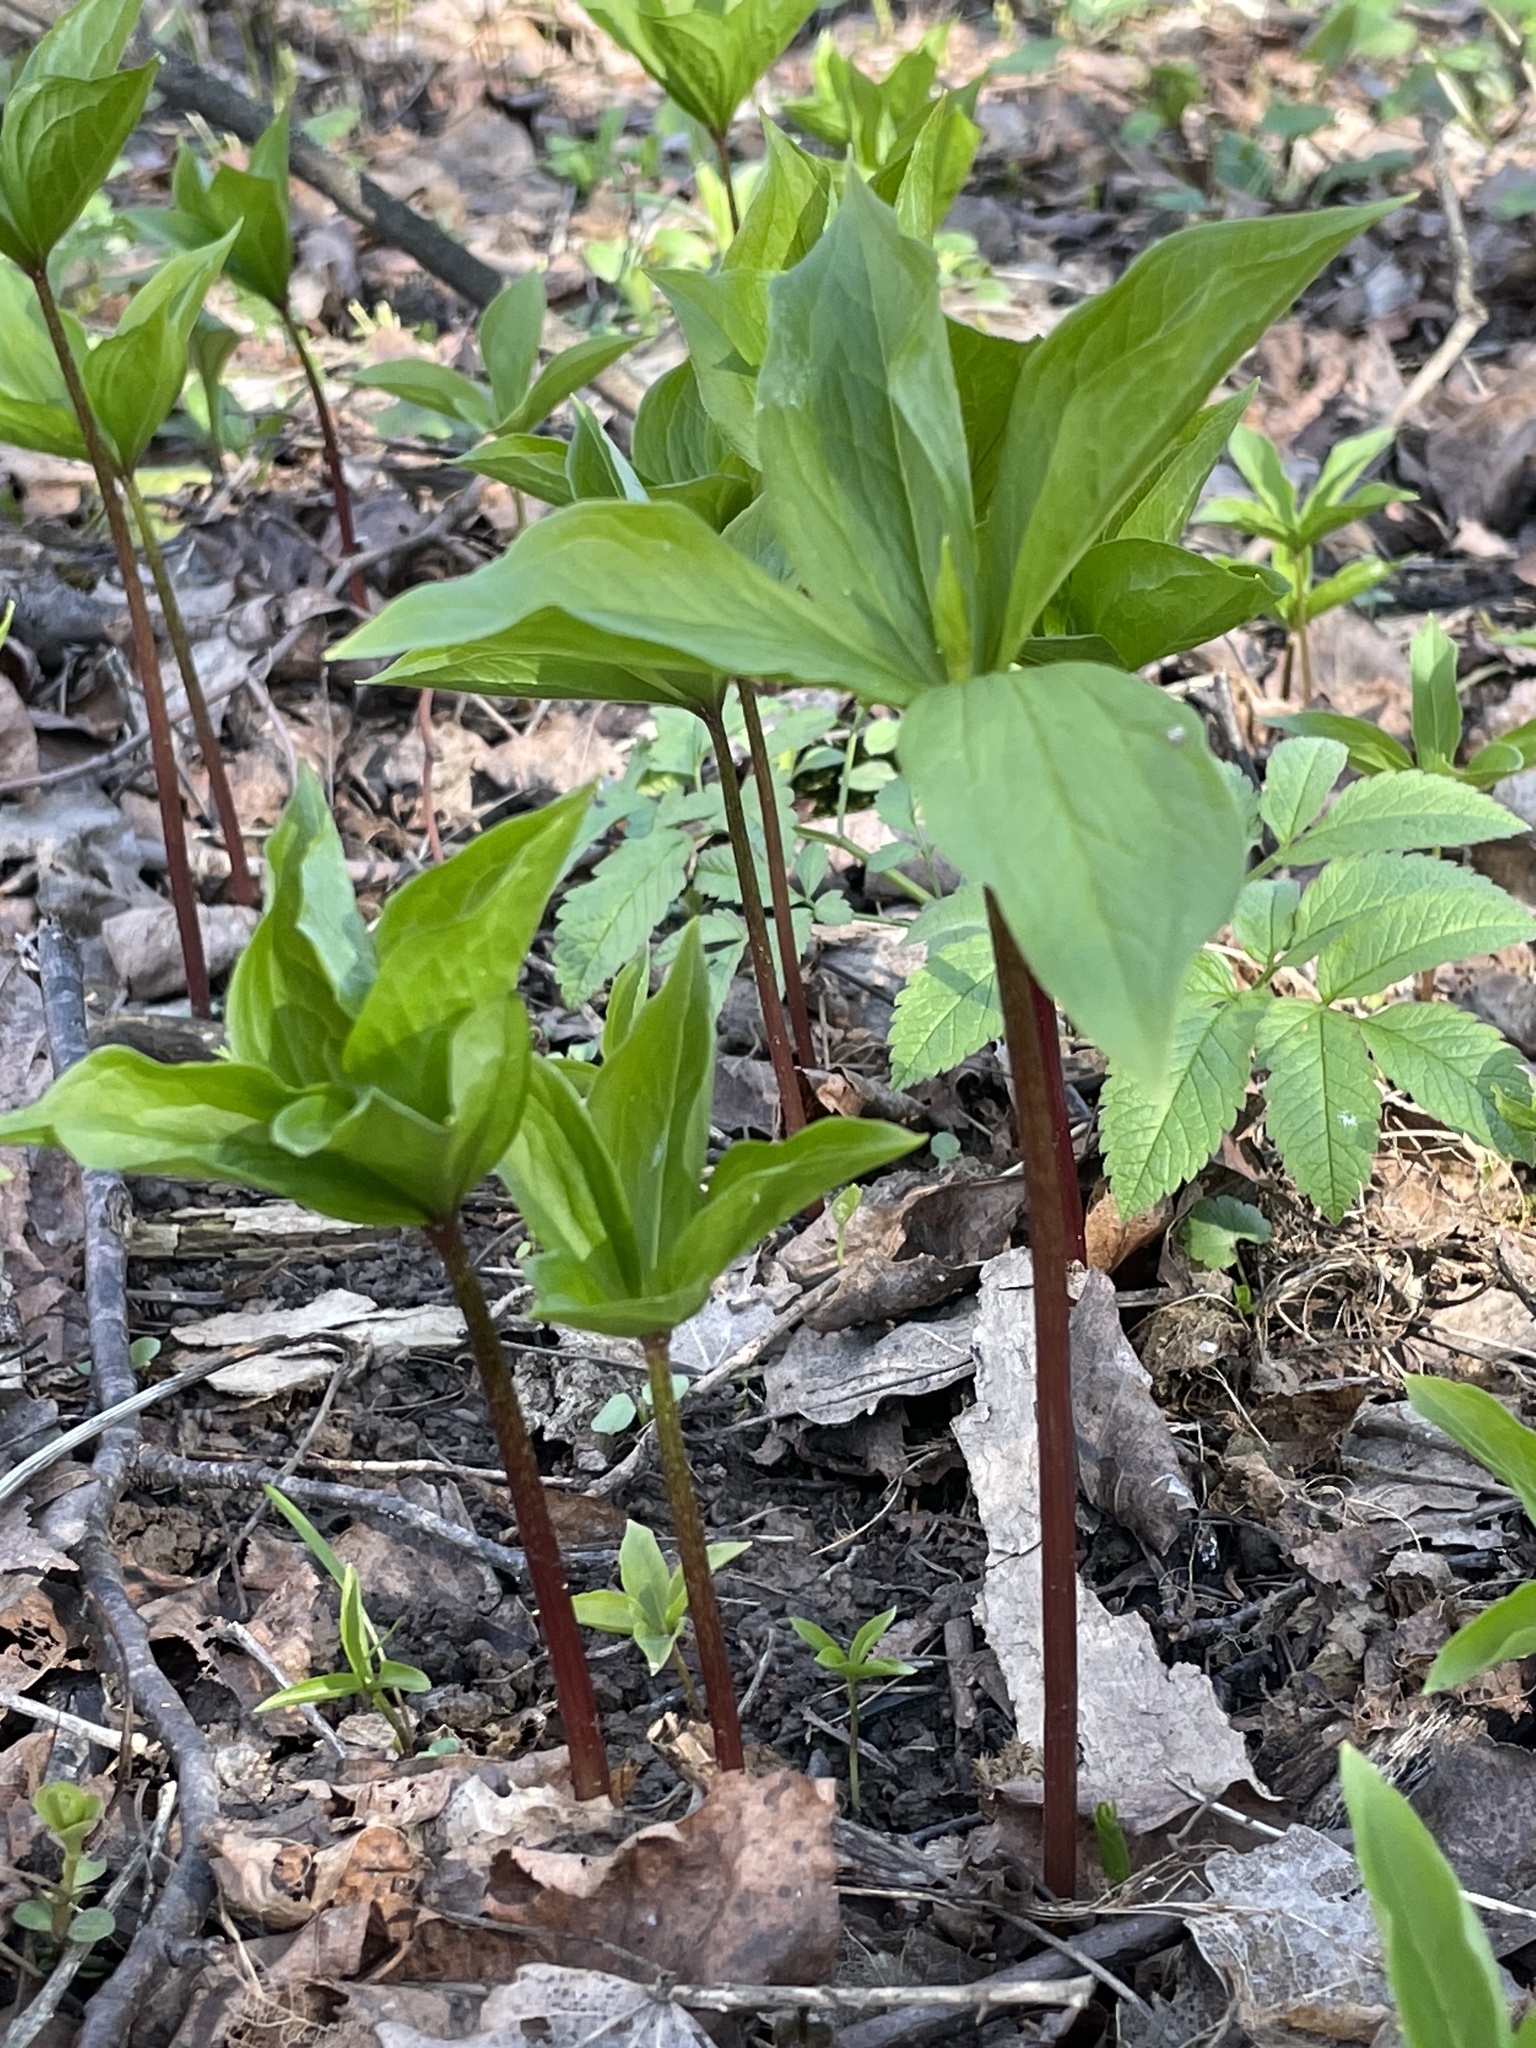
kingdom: Plantae
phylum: Tracheophyta
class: Liliopsida
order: Liliales
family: Melanthiaceae
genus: Paris
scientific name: Paris quadrifolia
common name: Herb-paris
